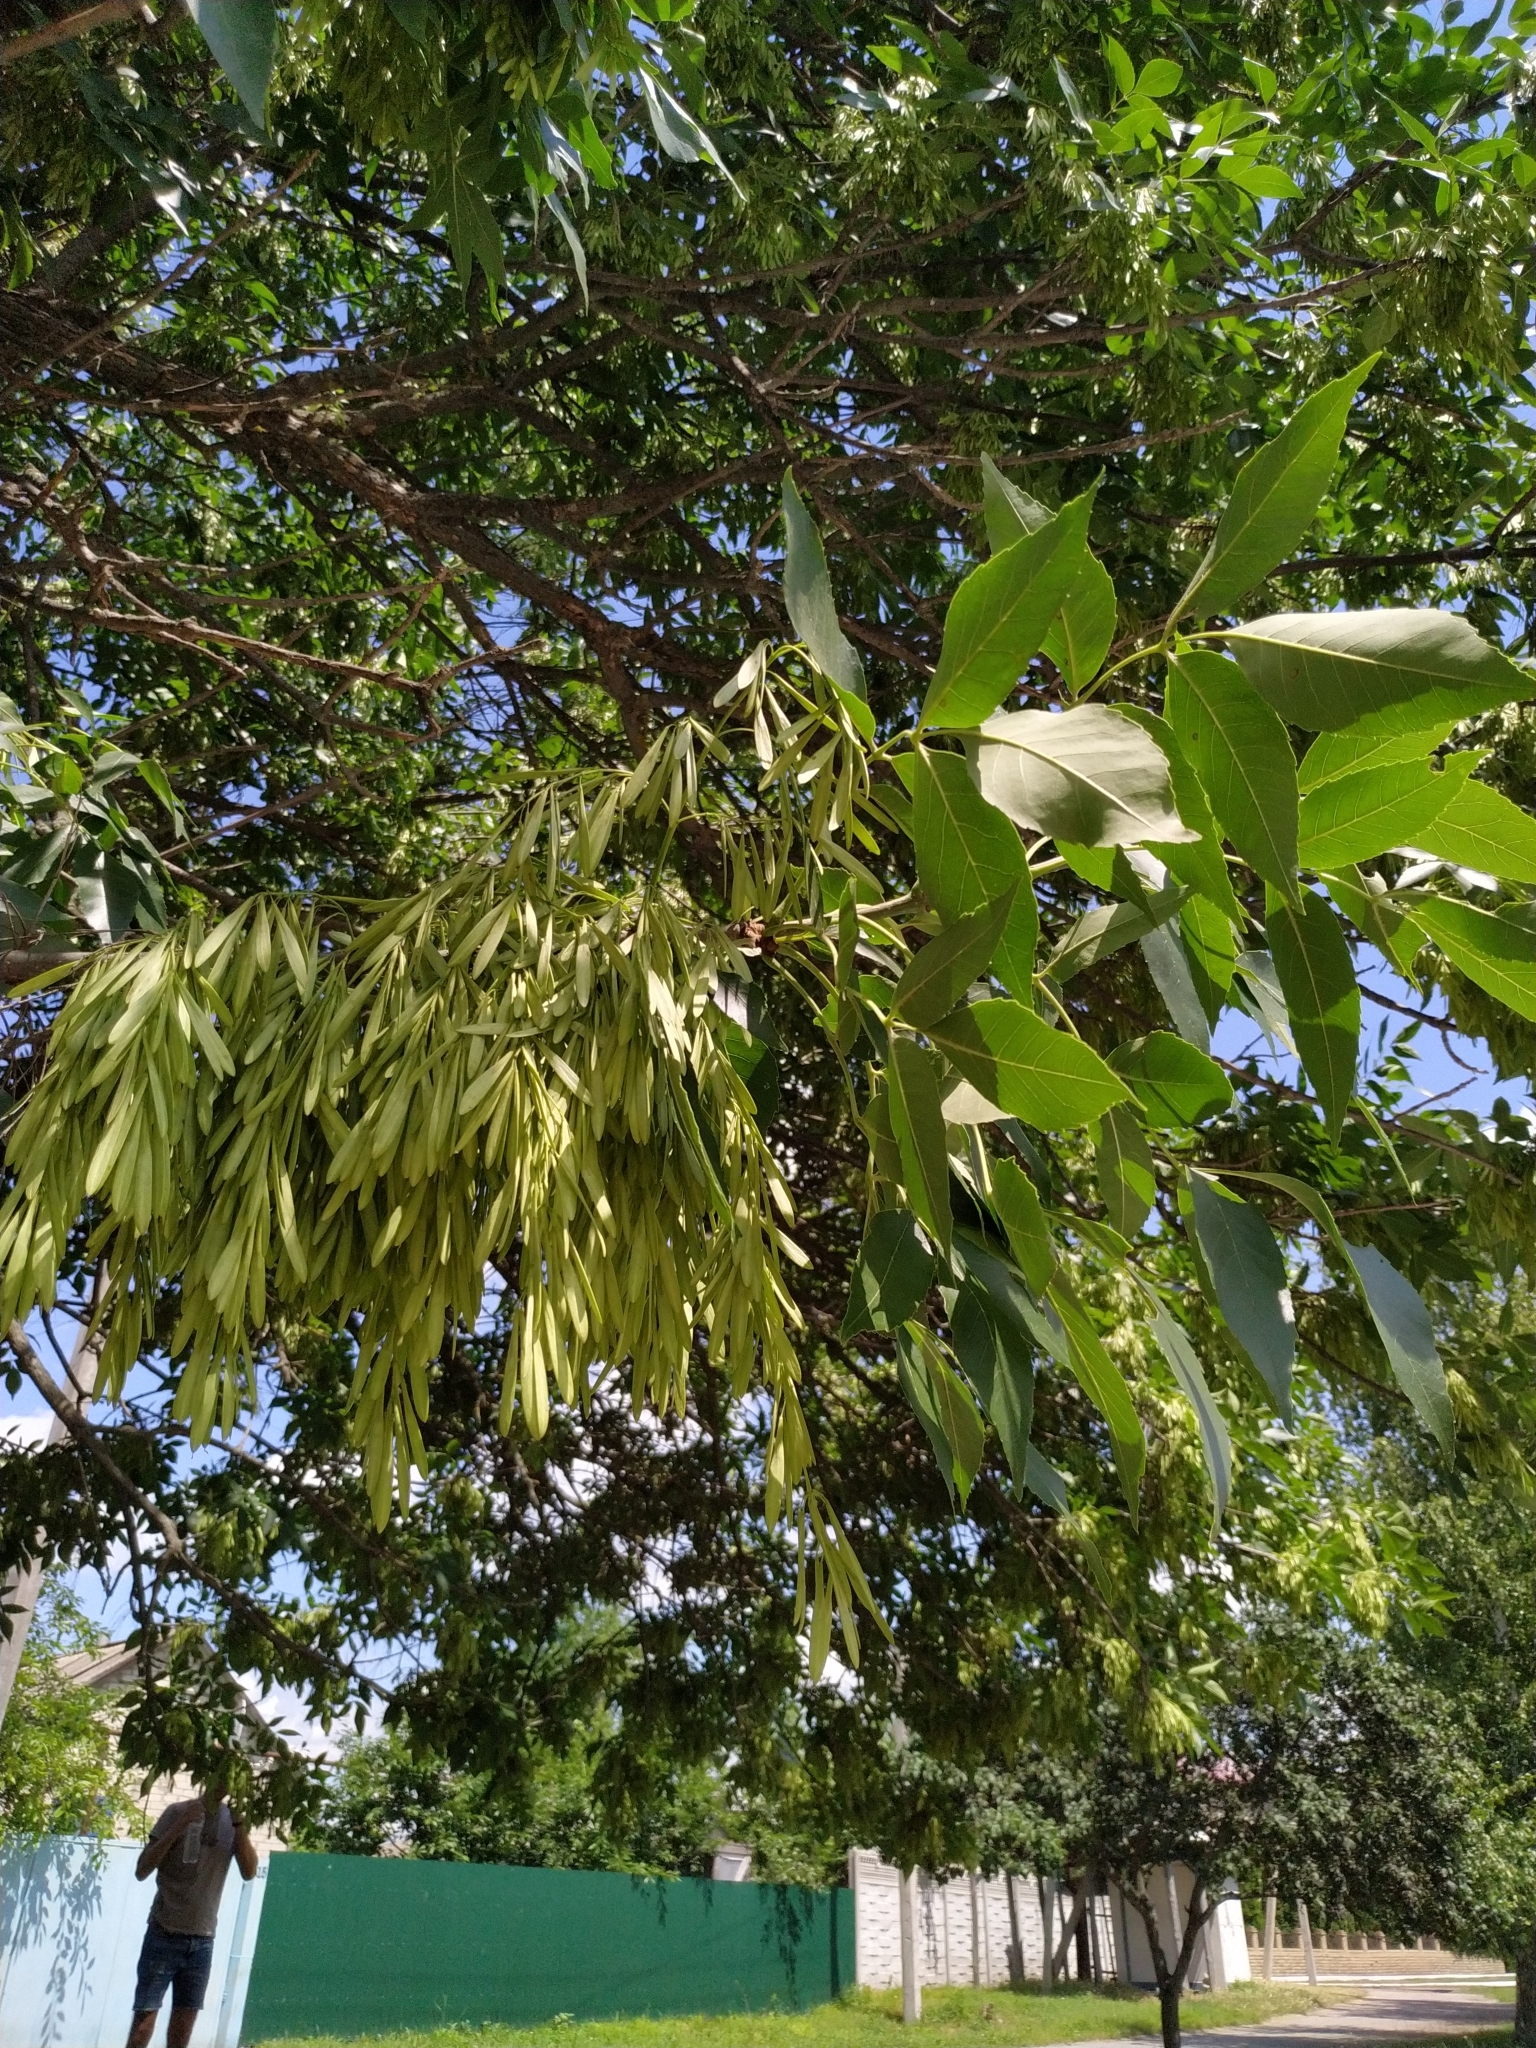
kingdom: Plantae
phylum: Tracheophyta
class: Magnoliopsida
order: Lamiales
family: Oleaceae
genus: Fraxinus
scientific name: Fraxinus pennsylvanica
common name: Green ash
